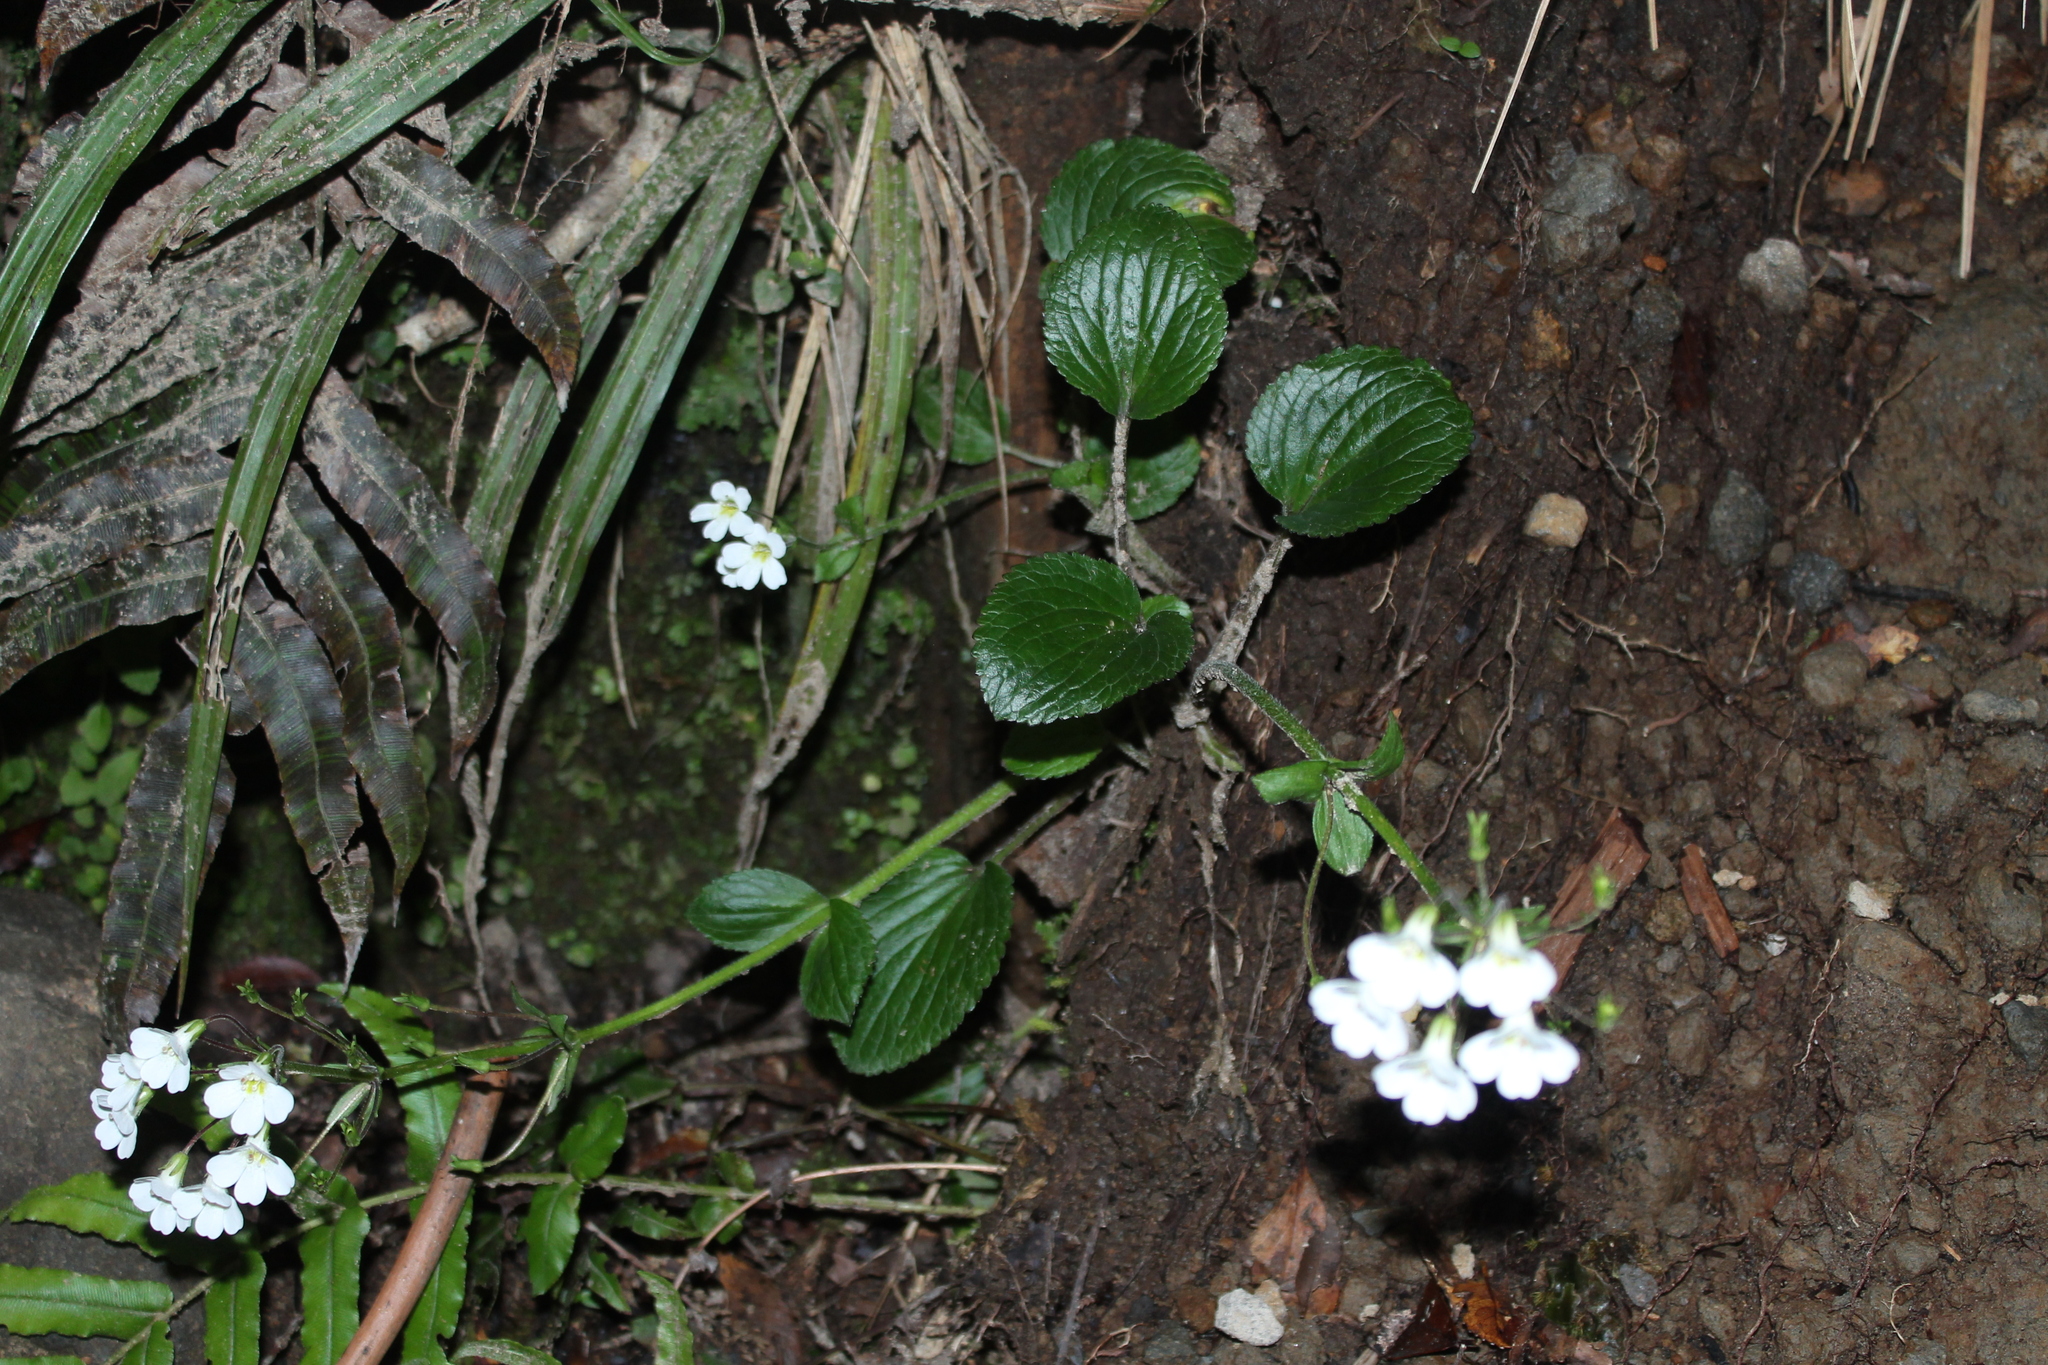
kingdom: Plantae
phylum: Tracheophyta
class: Magnoliopsida
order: Lamiales
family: Plantaginaceae
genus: Ourisia
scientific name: Ourisia macrophylla
